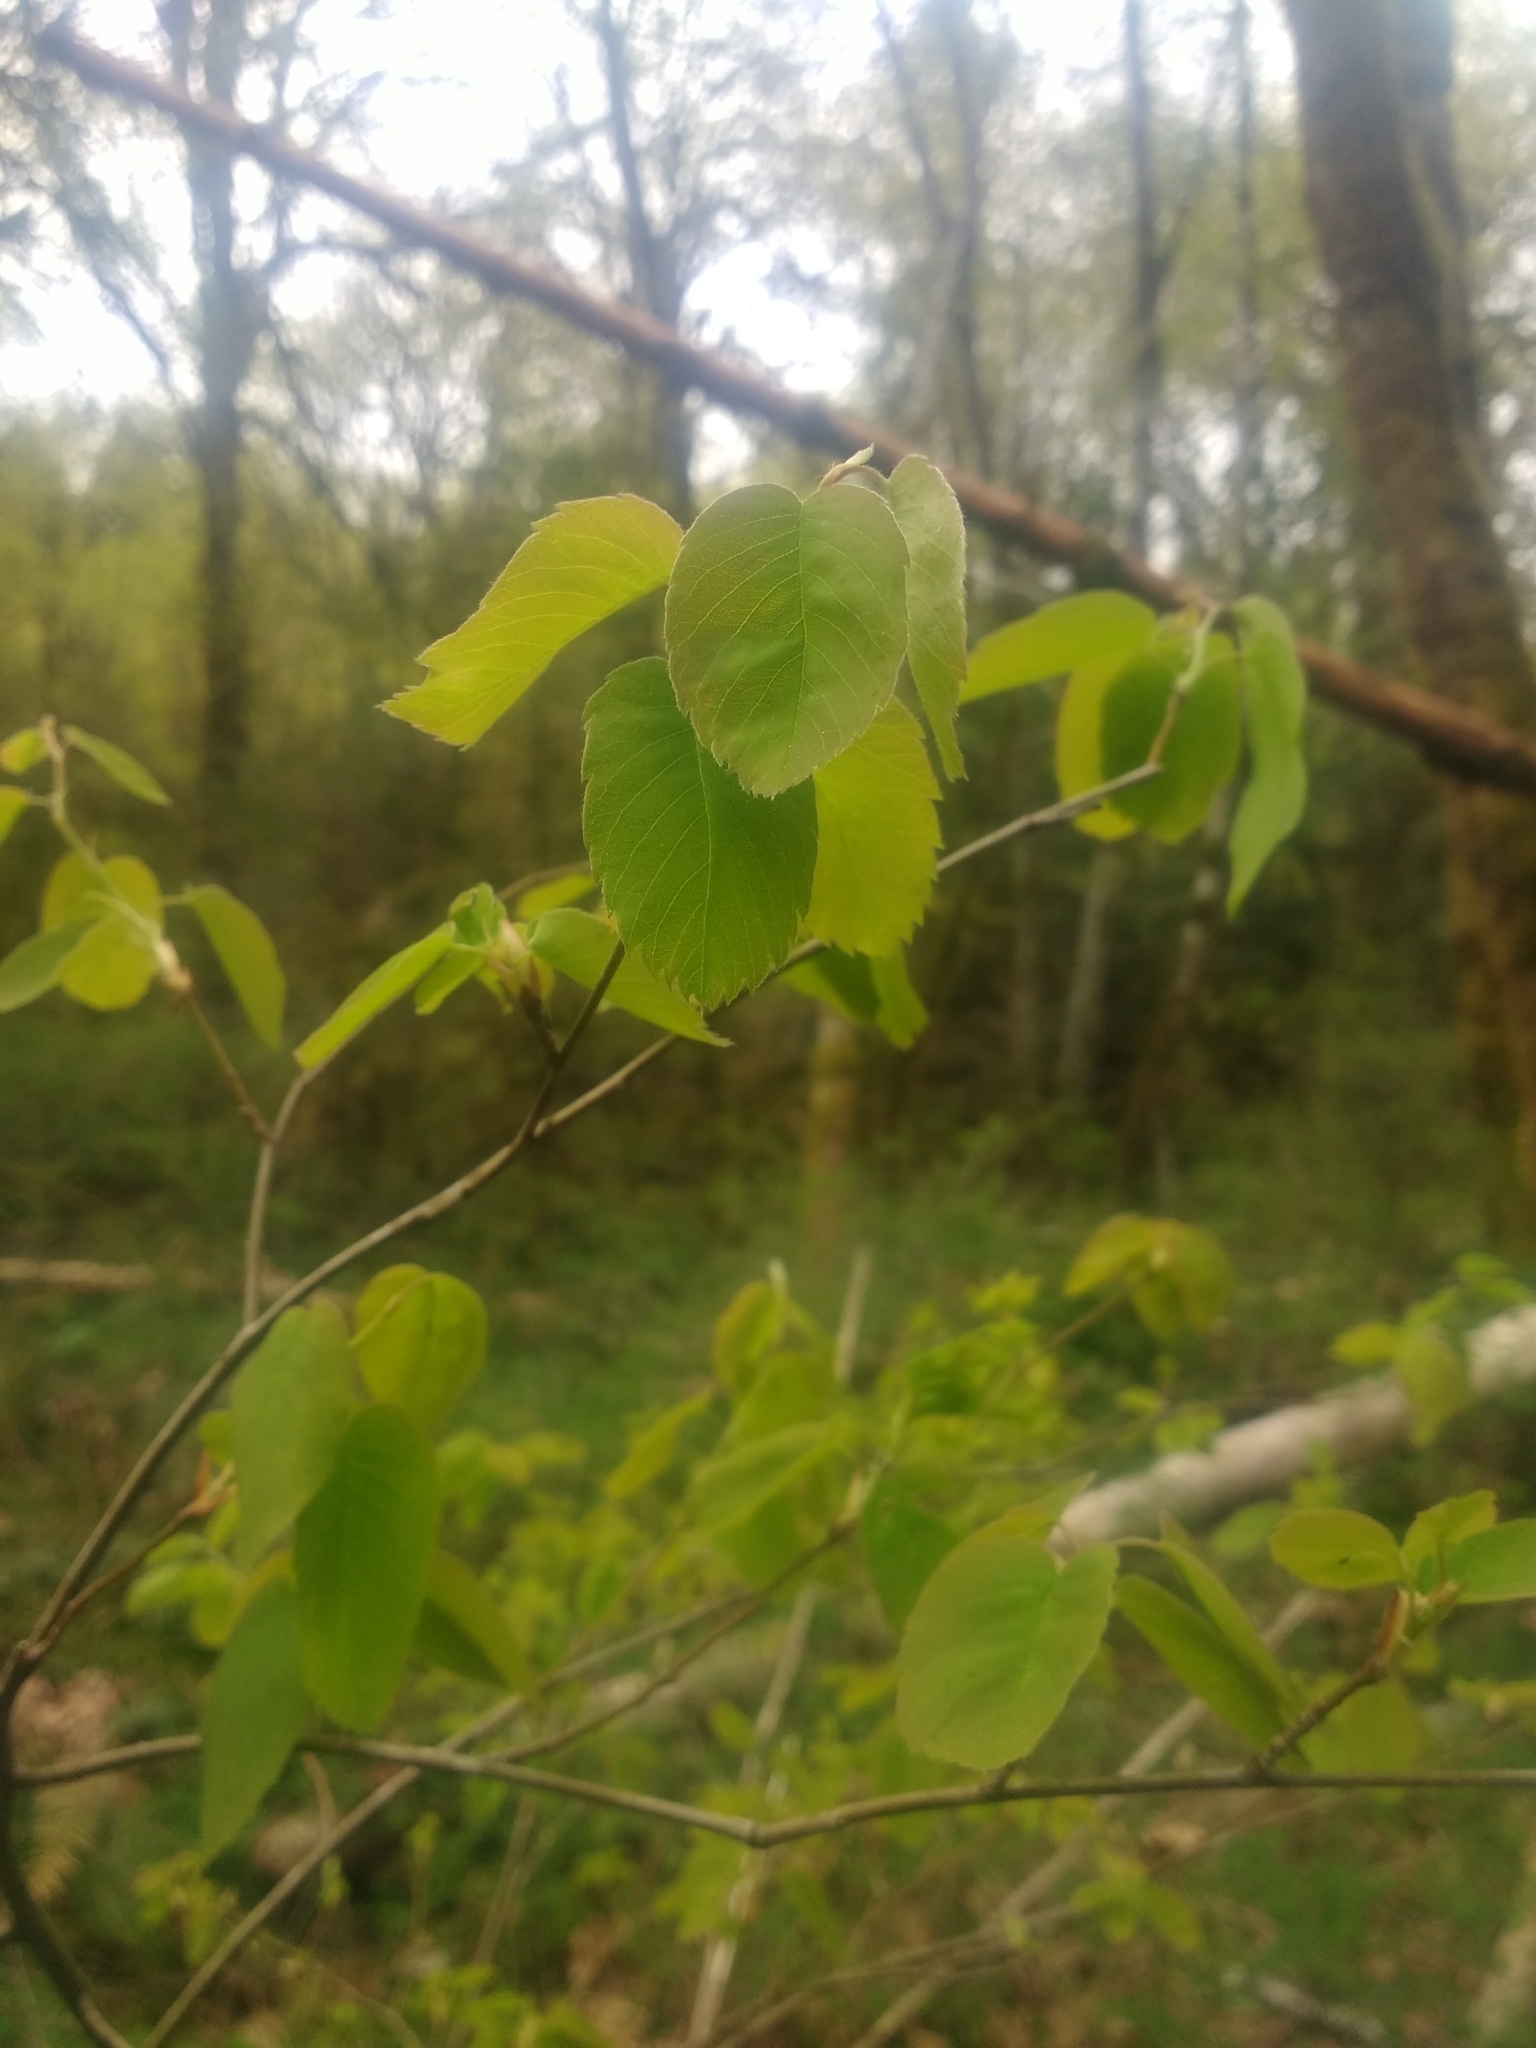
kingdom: Plantae
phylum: Tracheophyta
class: Magnoliopsida
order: Rosales
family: Rosaceae
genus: Amelanchier
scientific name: Amelanchier alnifolia
